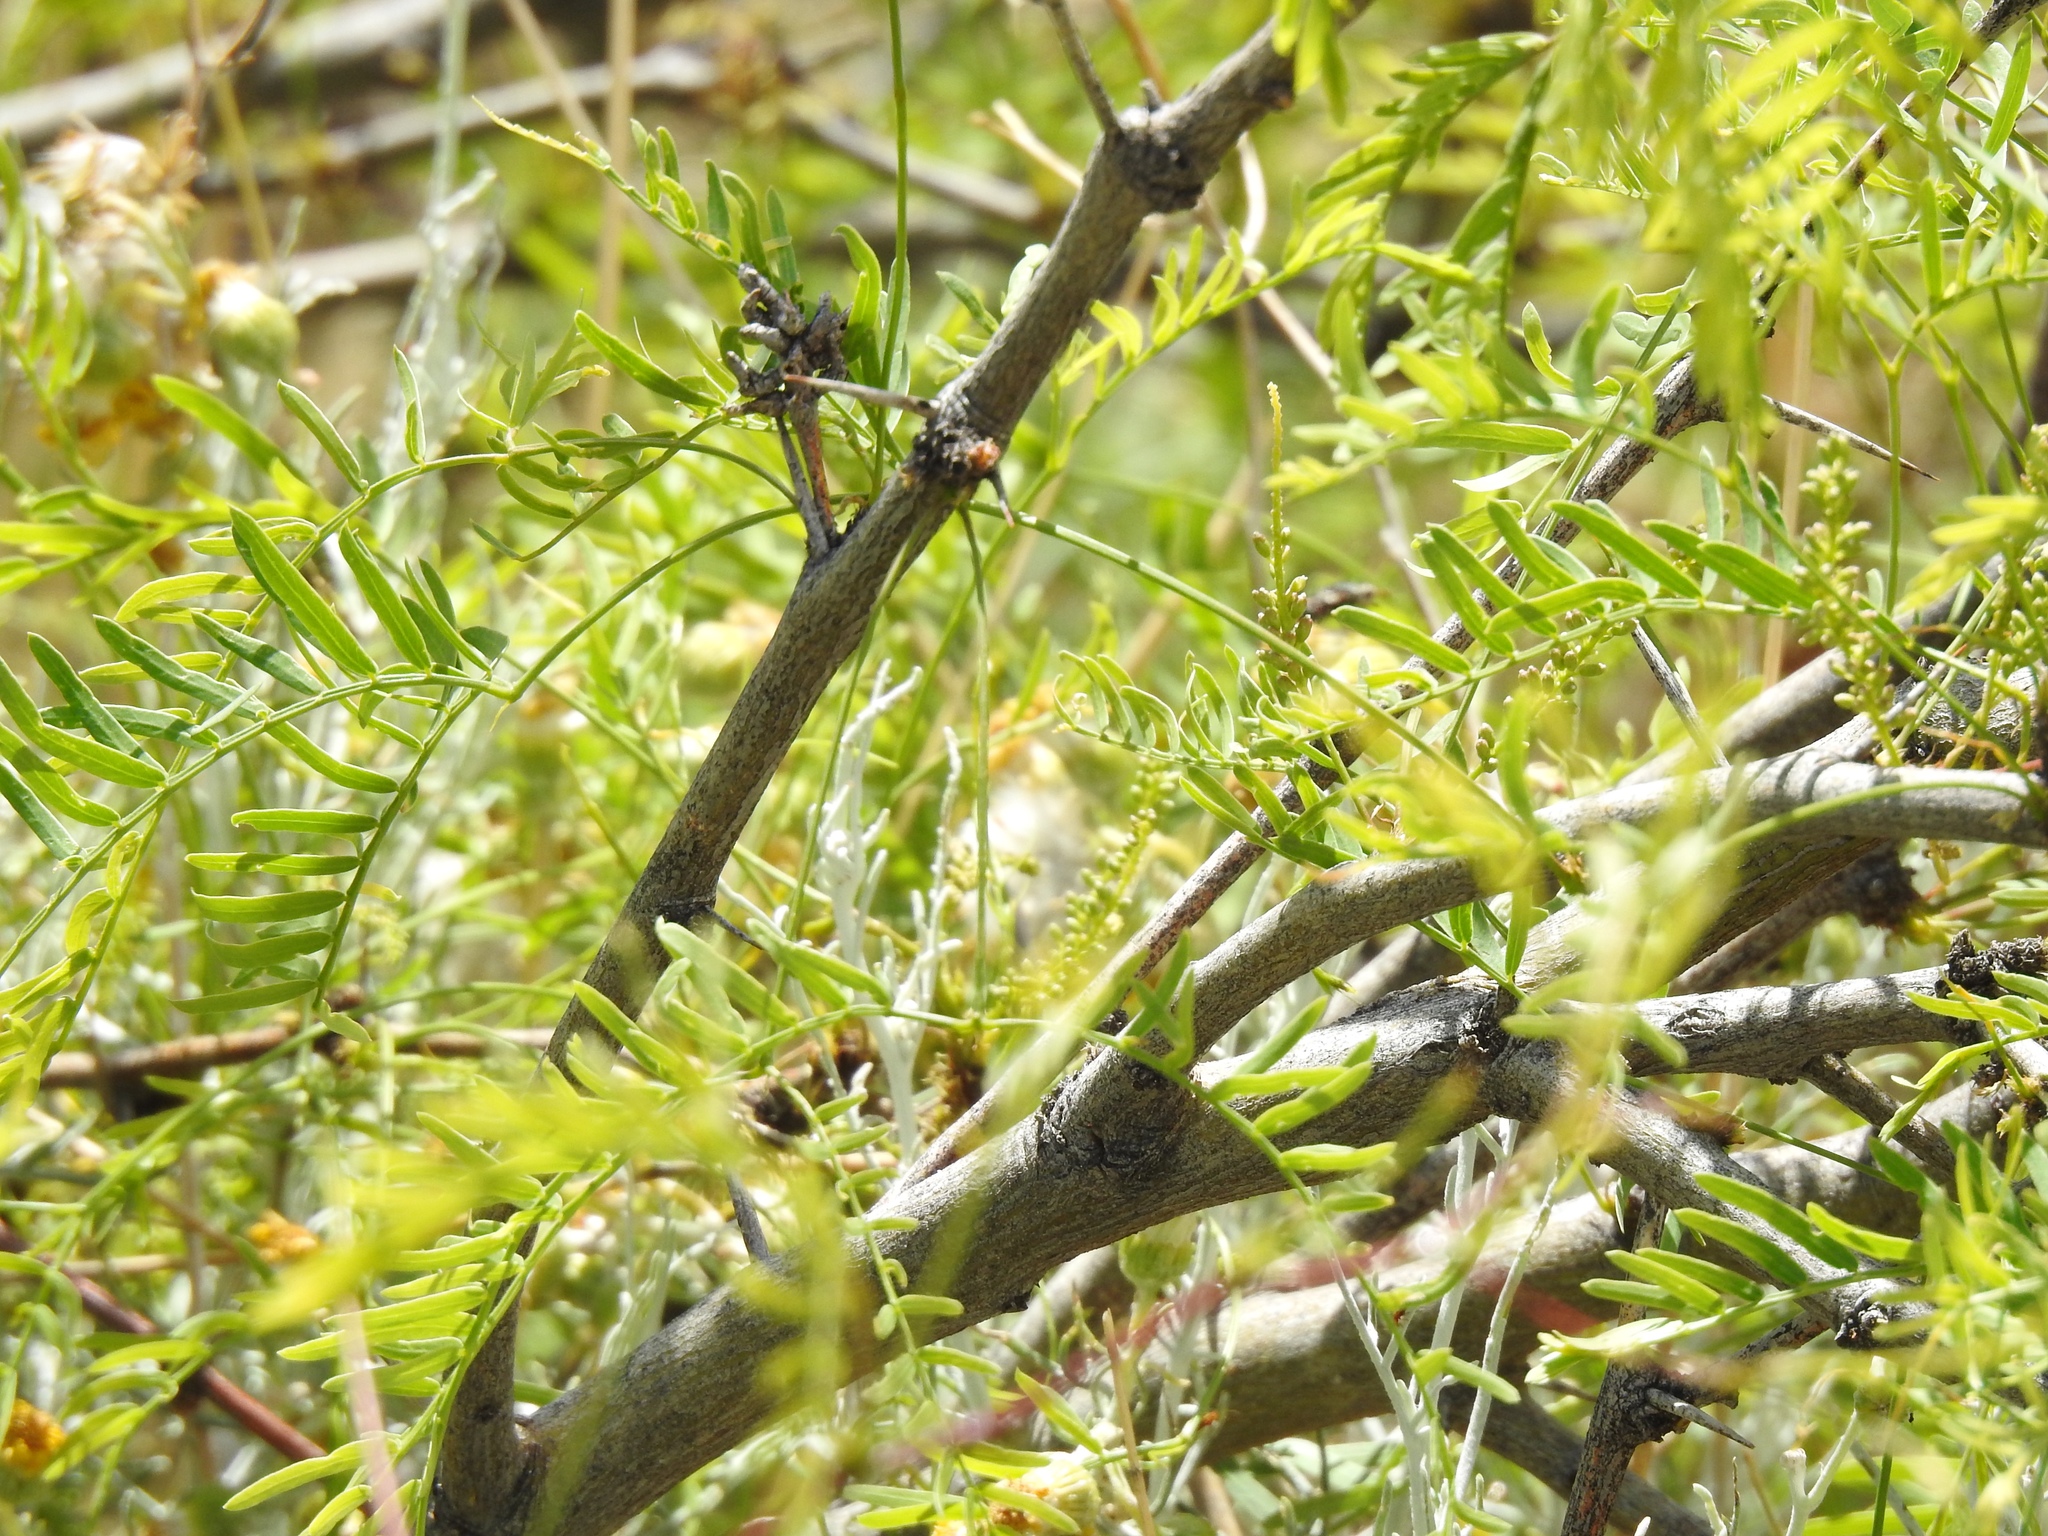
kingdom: Plantae
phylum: Tracheophyta
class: Magnoliopsida
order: Fabales
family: Fabaceae
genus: Prosopis
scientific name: Prosopis glandulosa
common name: Honey mesquite
